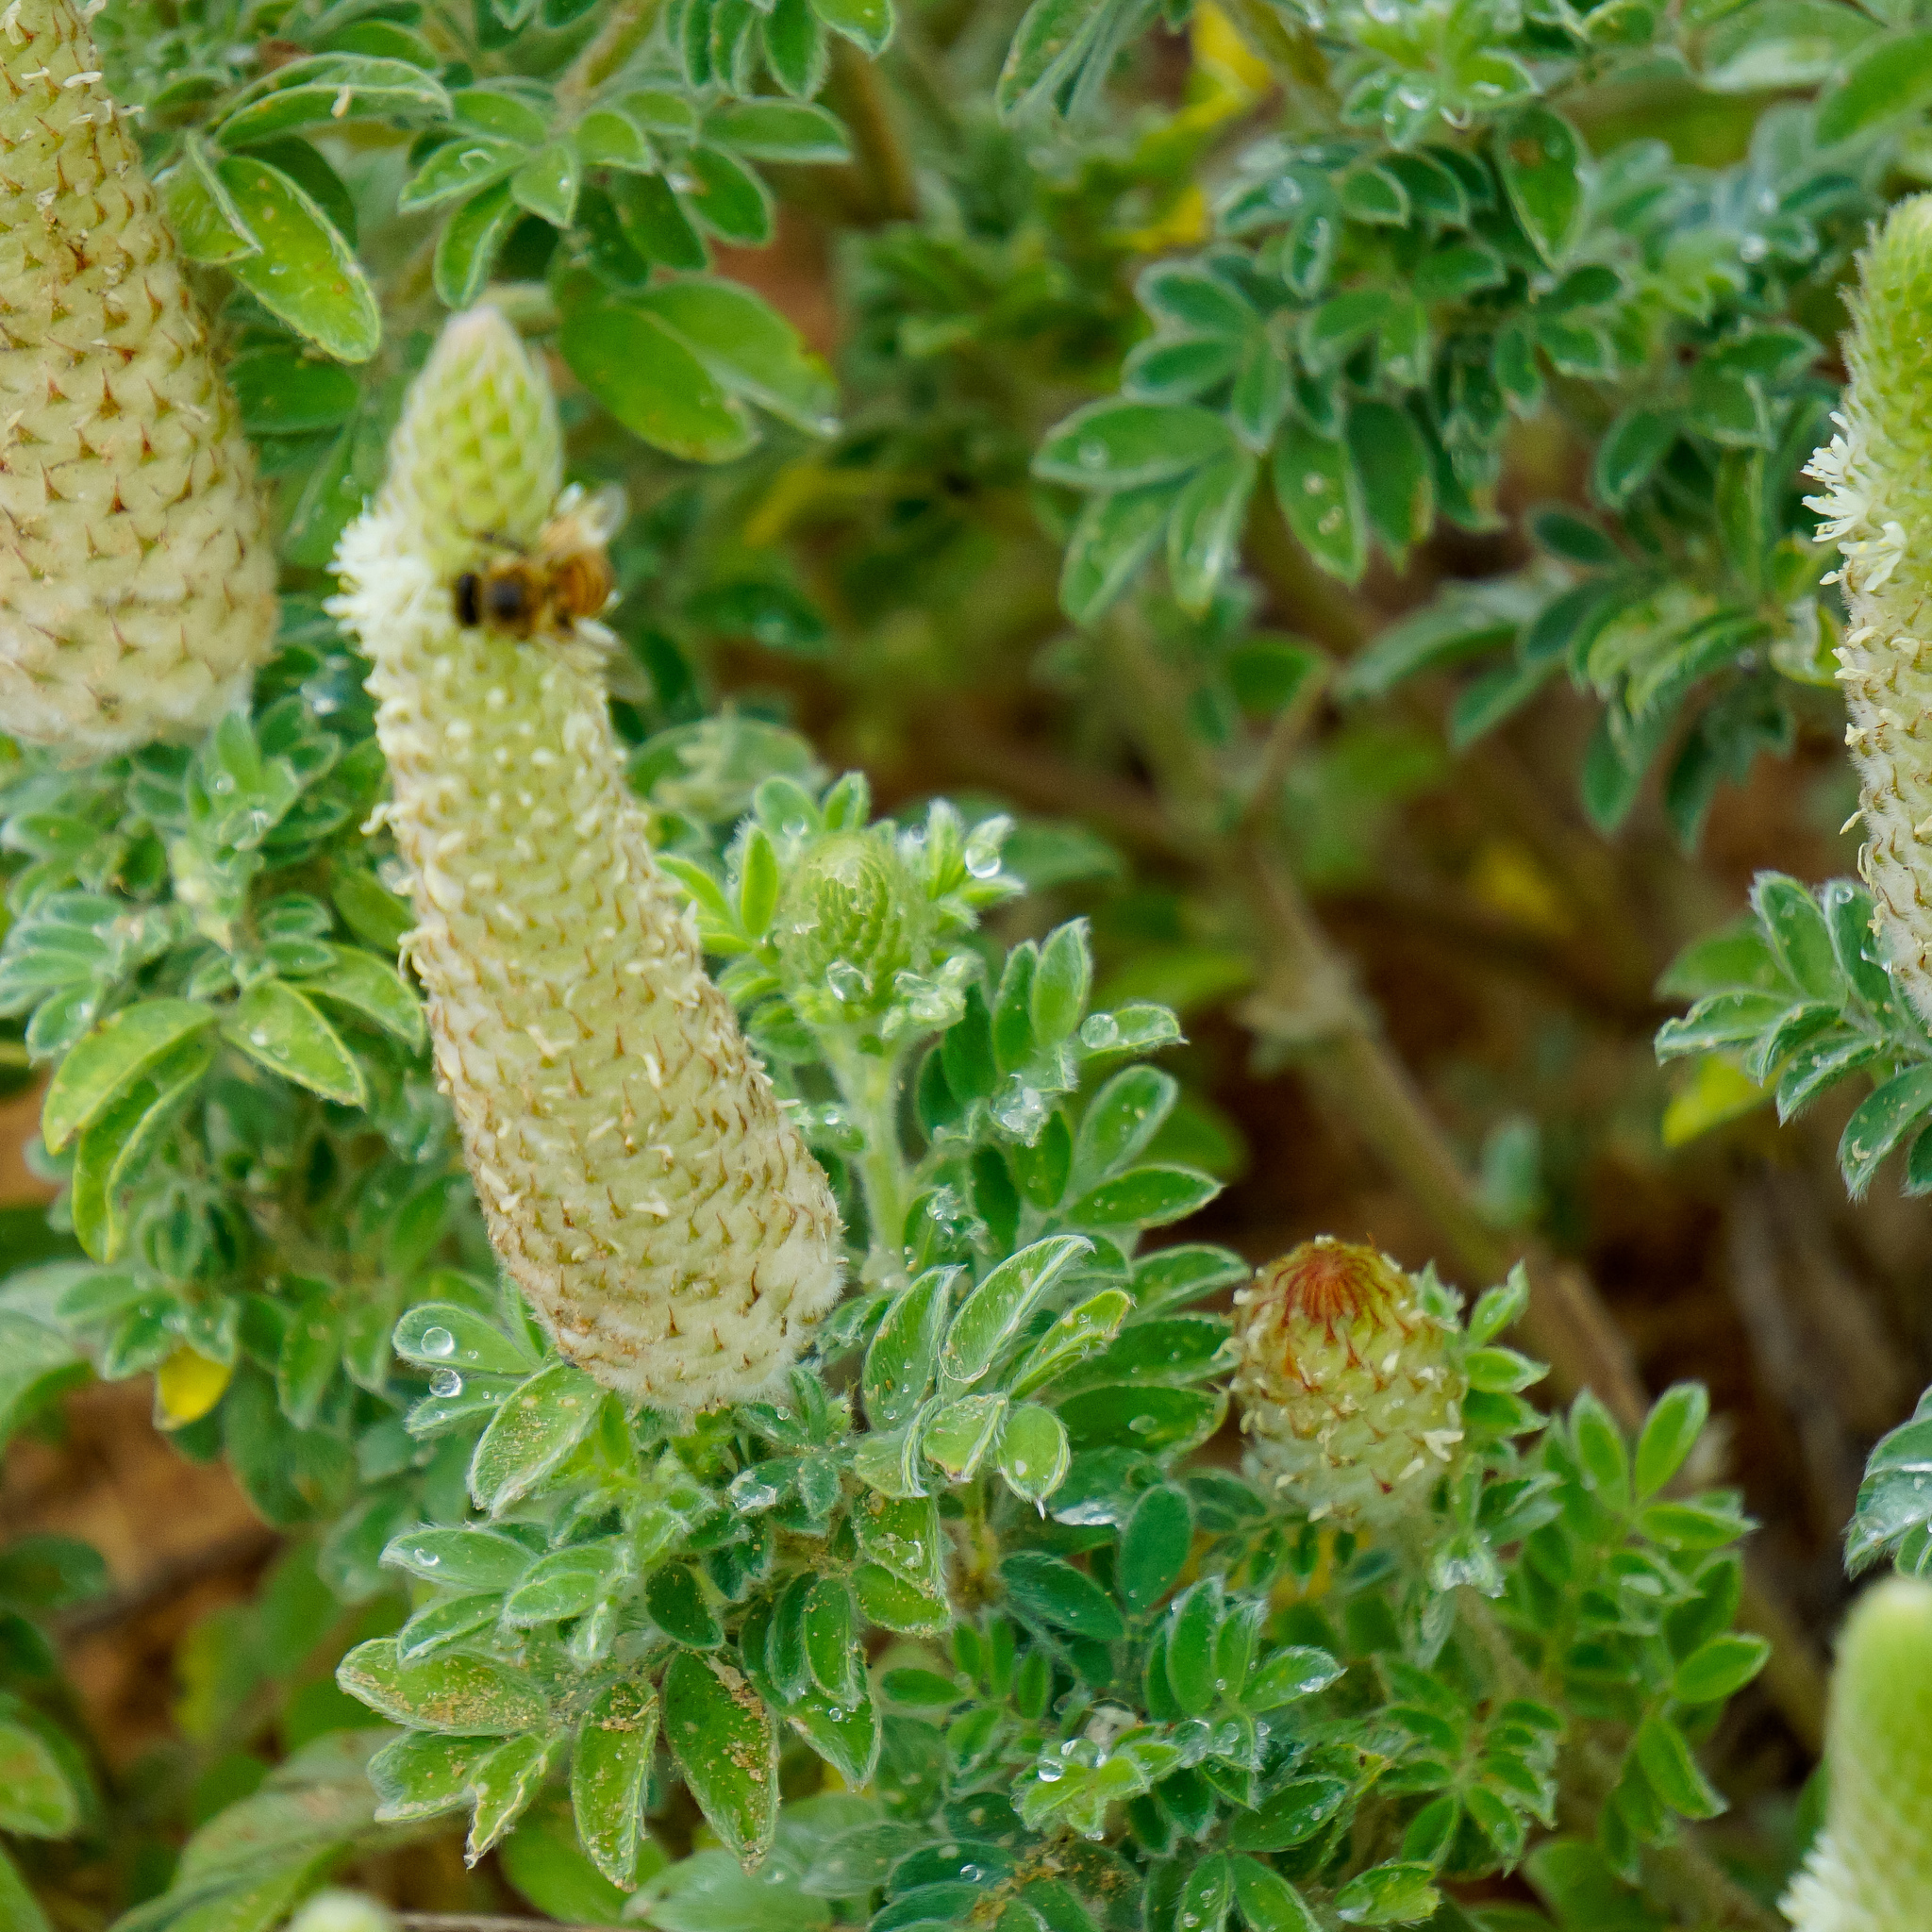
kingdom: Plantae
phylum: Tracheophyta
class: Magnoliopsida
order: Fabales
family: Fabaceae
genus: Dalea
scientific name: Dalea obovata
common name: Pussyfoot
